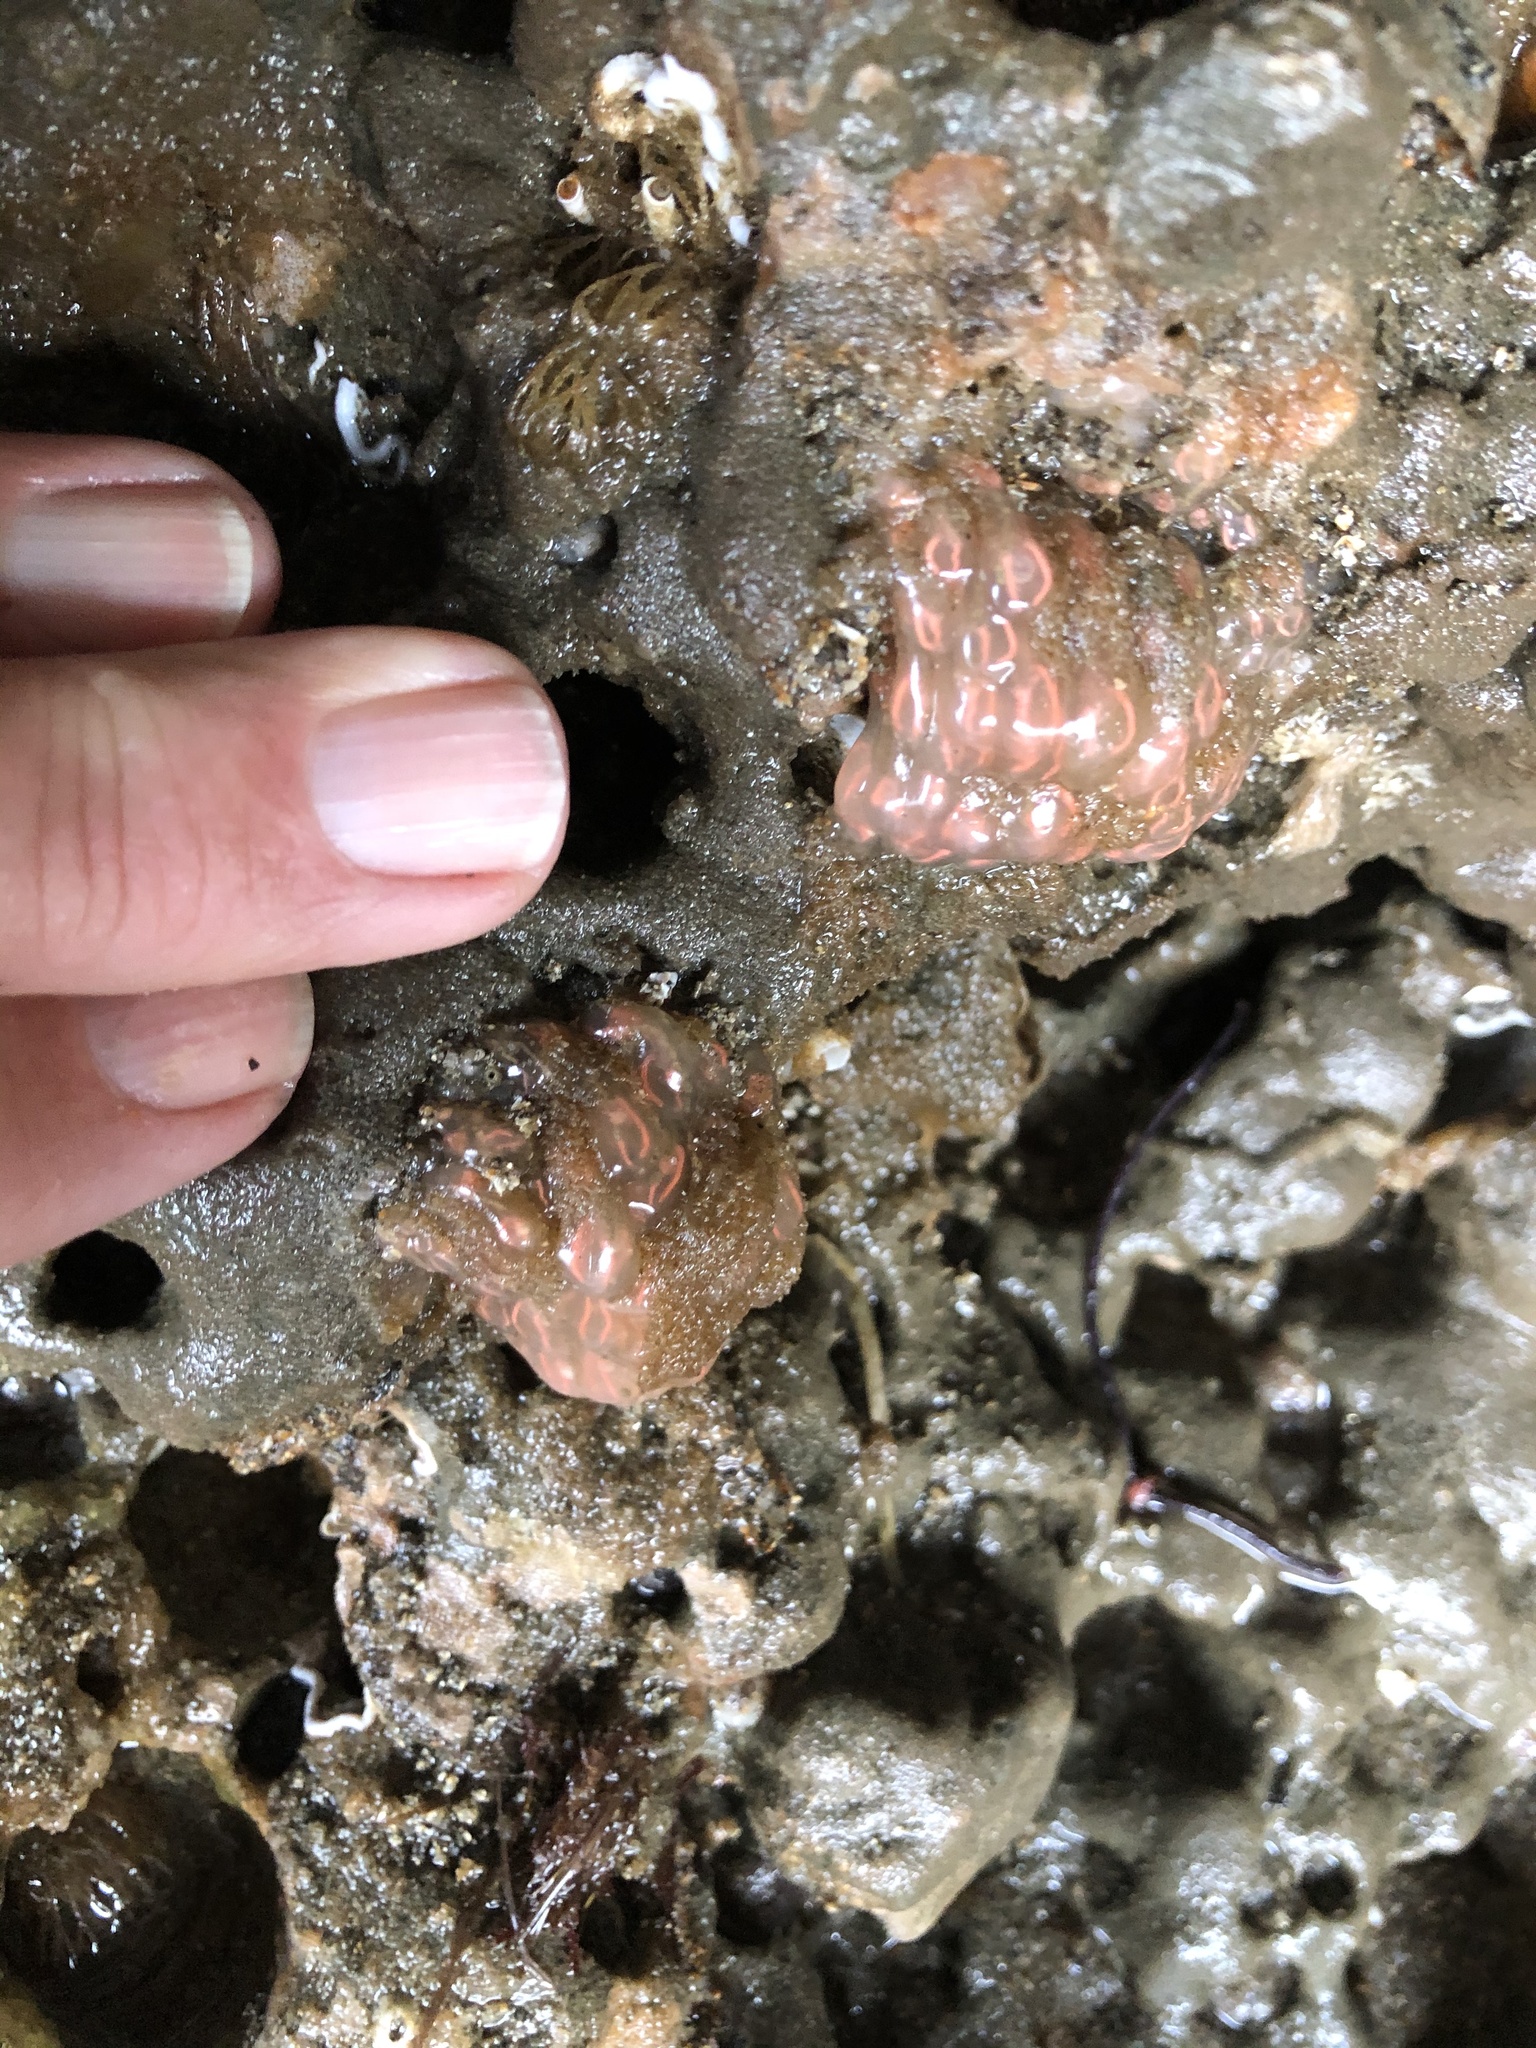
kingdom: Animalia
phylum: Chordata
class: Ascidiacea
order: Aplousobranchia
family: Clavelinidae
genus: Clavelina
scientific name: Clavelina huntsmani
